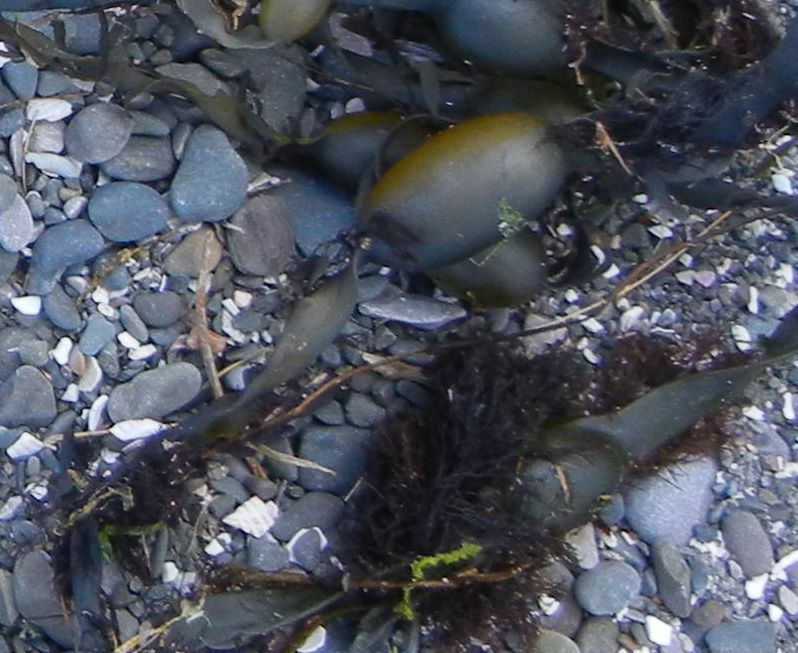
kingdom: Plantae
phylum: Rhodophyta
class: Florideophyceae
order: Ceramiales
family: Rhodomelaceae
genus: Vertebrata
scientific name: Vertebrata lanosa
